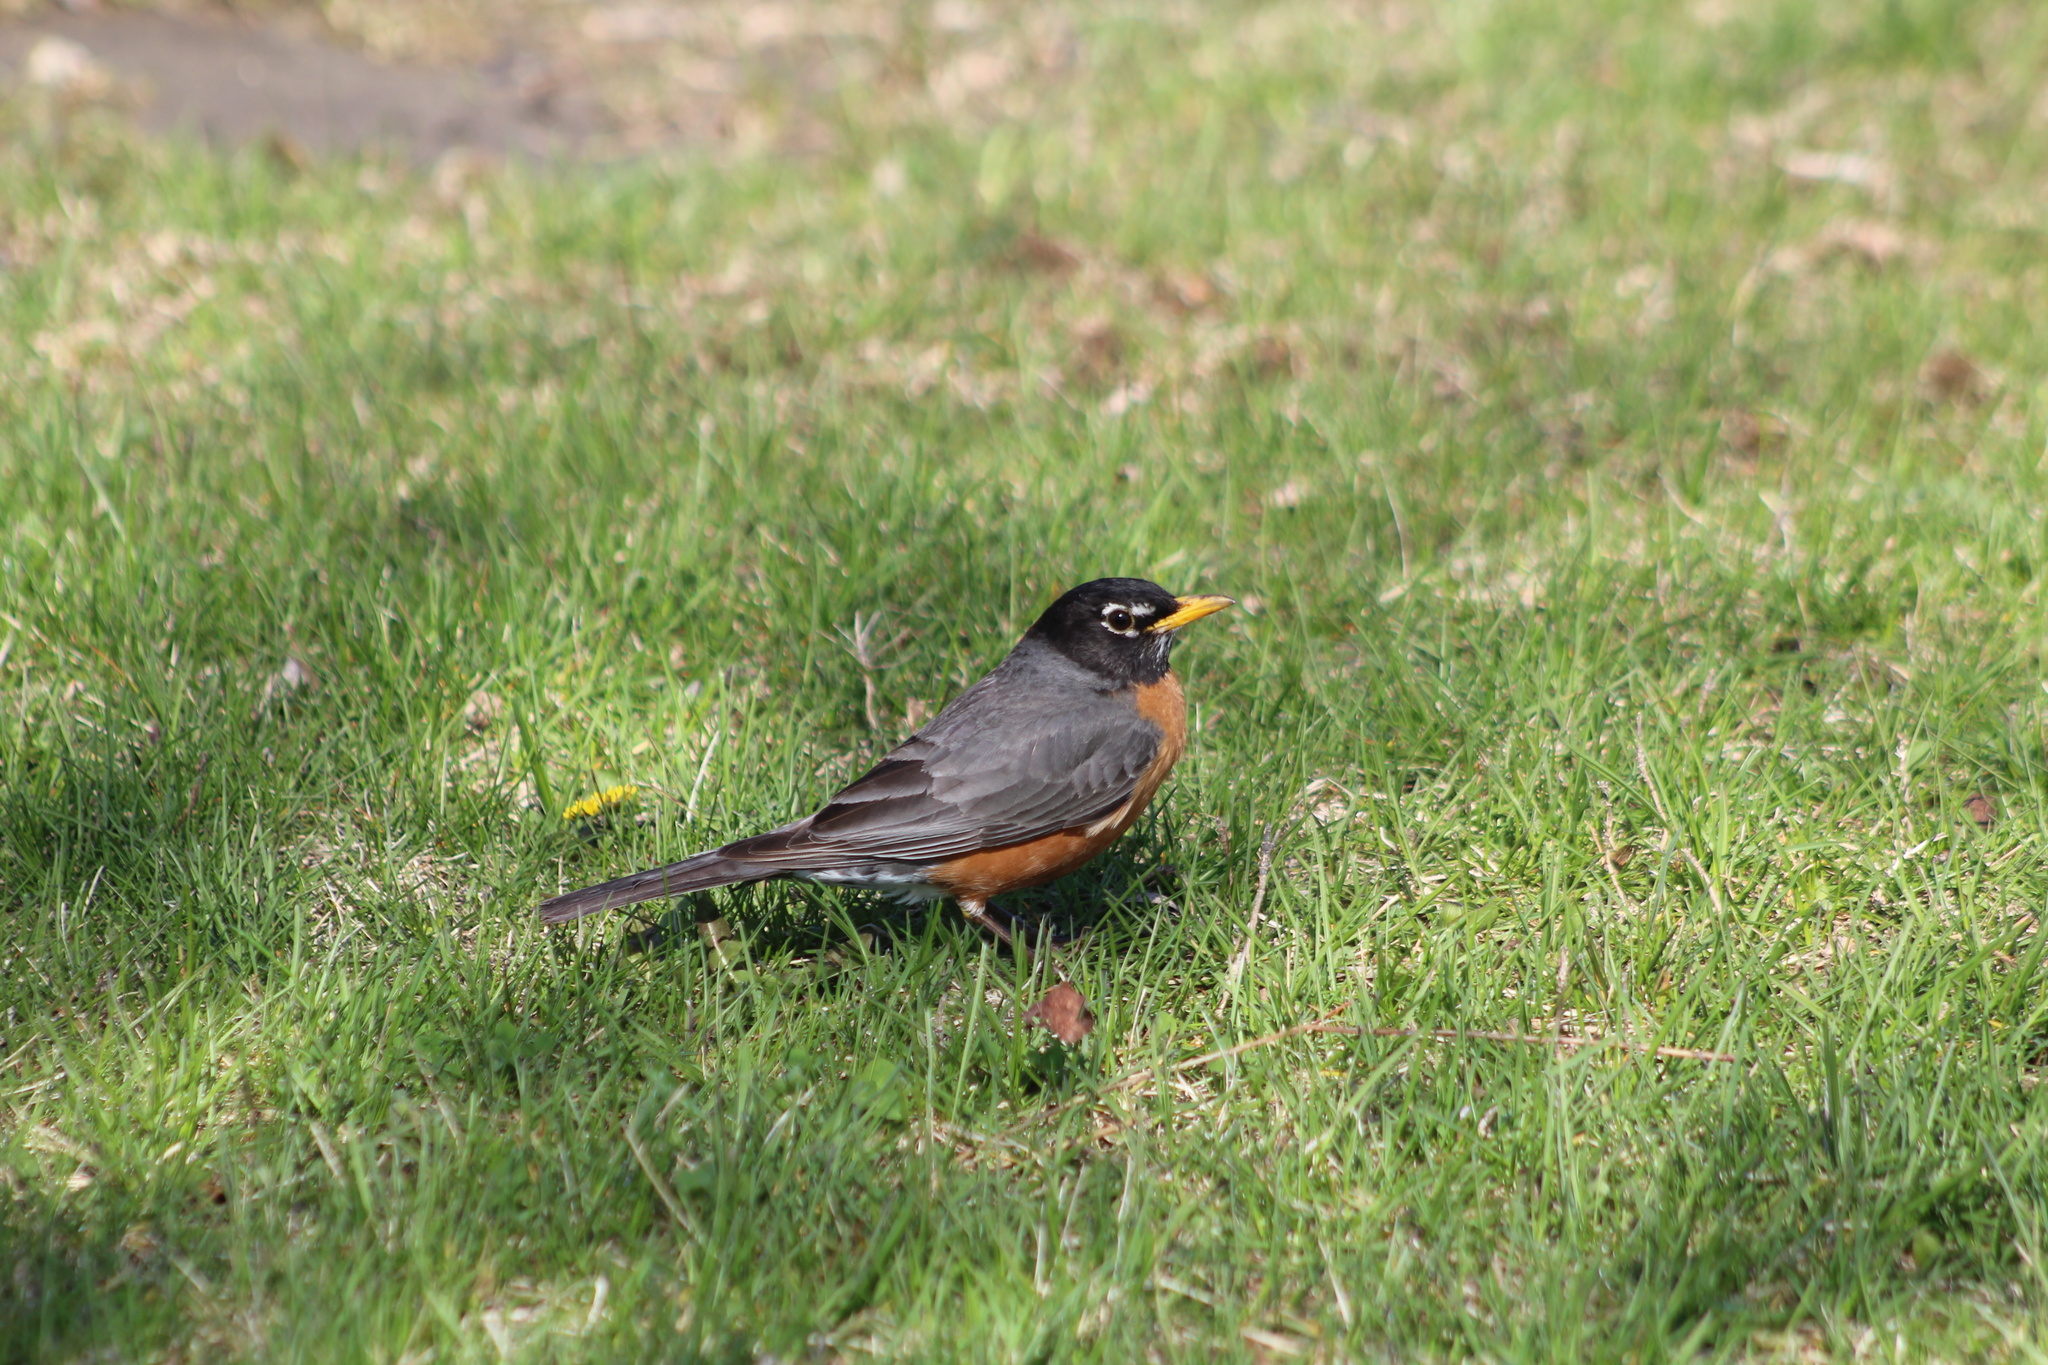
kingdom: Animalia
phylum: Chordata
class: Aves
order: Passeriformes
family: Turdidae
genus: Turdus
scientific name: Turdus migratorius
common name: American robin
